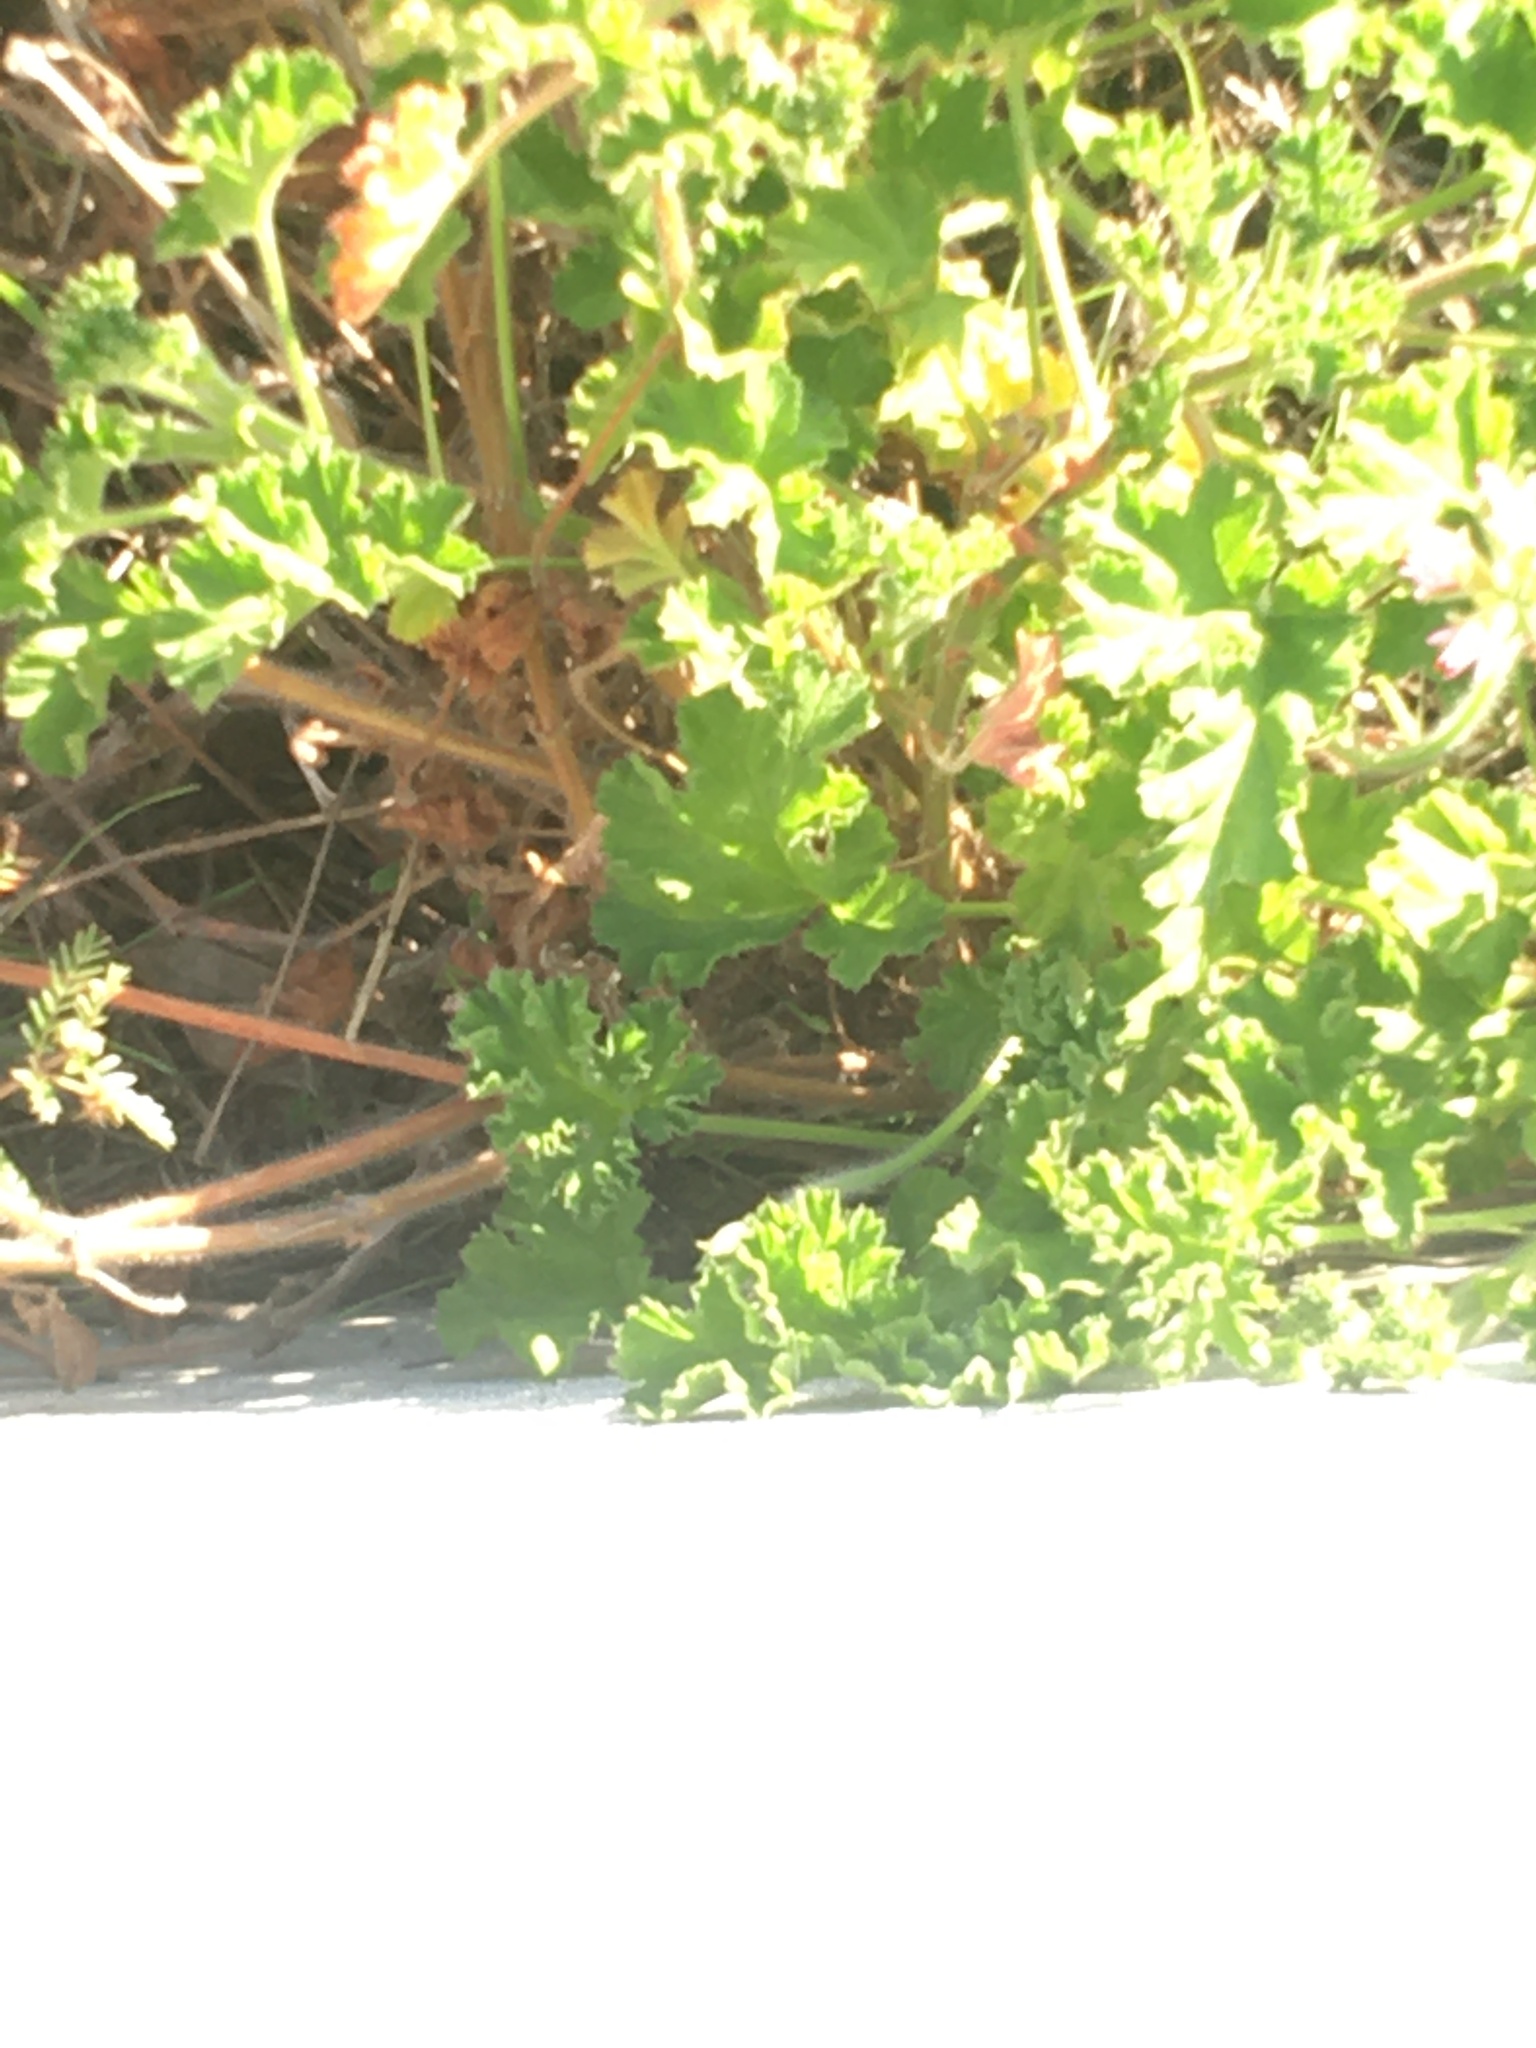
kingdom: Plantae
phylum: Tracheophyta
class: Magnoliopsida
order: Geraniales
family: Geraniaceae
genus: Pelargonium
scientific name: Pelargonium capitatum
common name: Rose scented geranium
